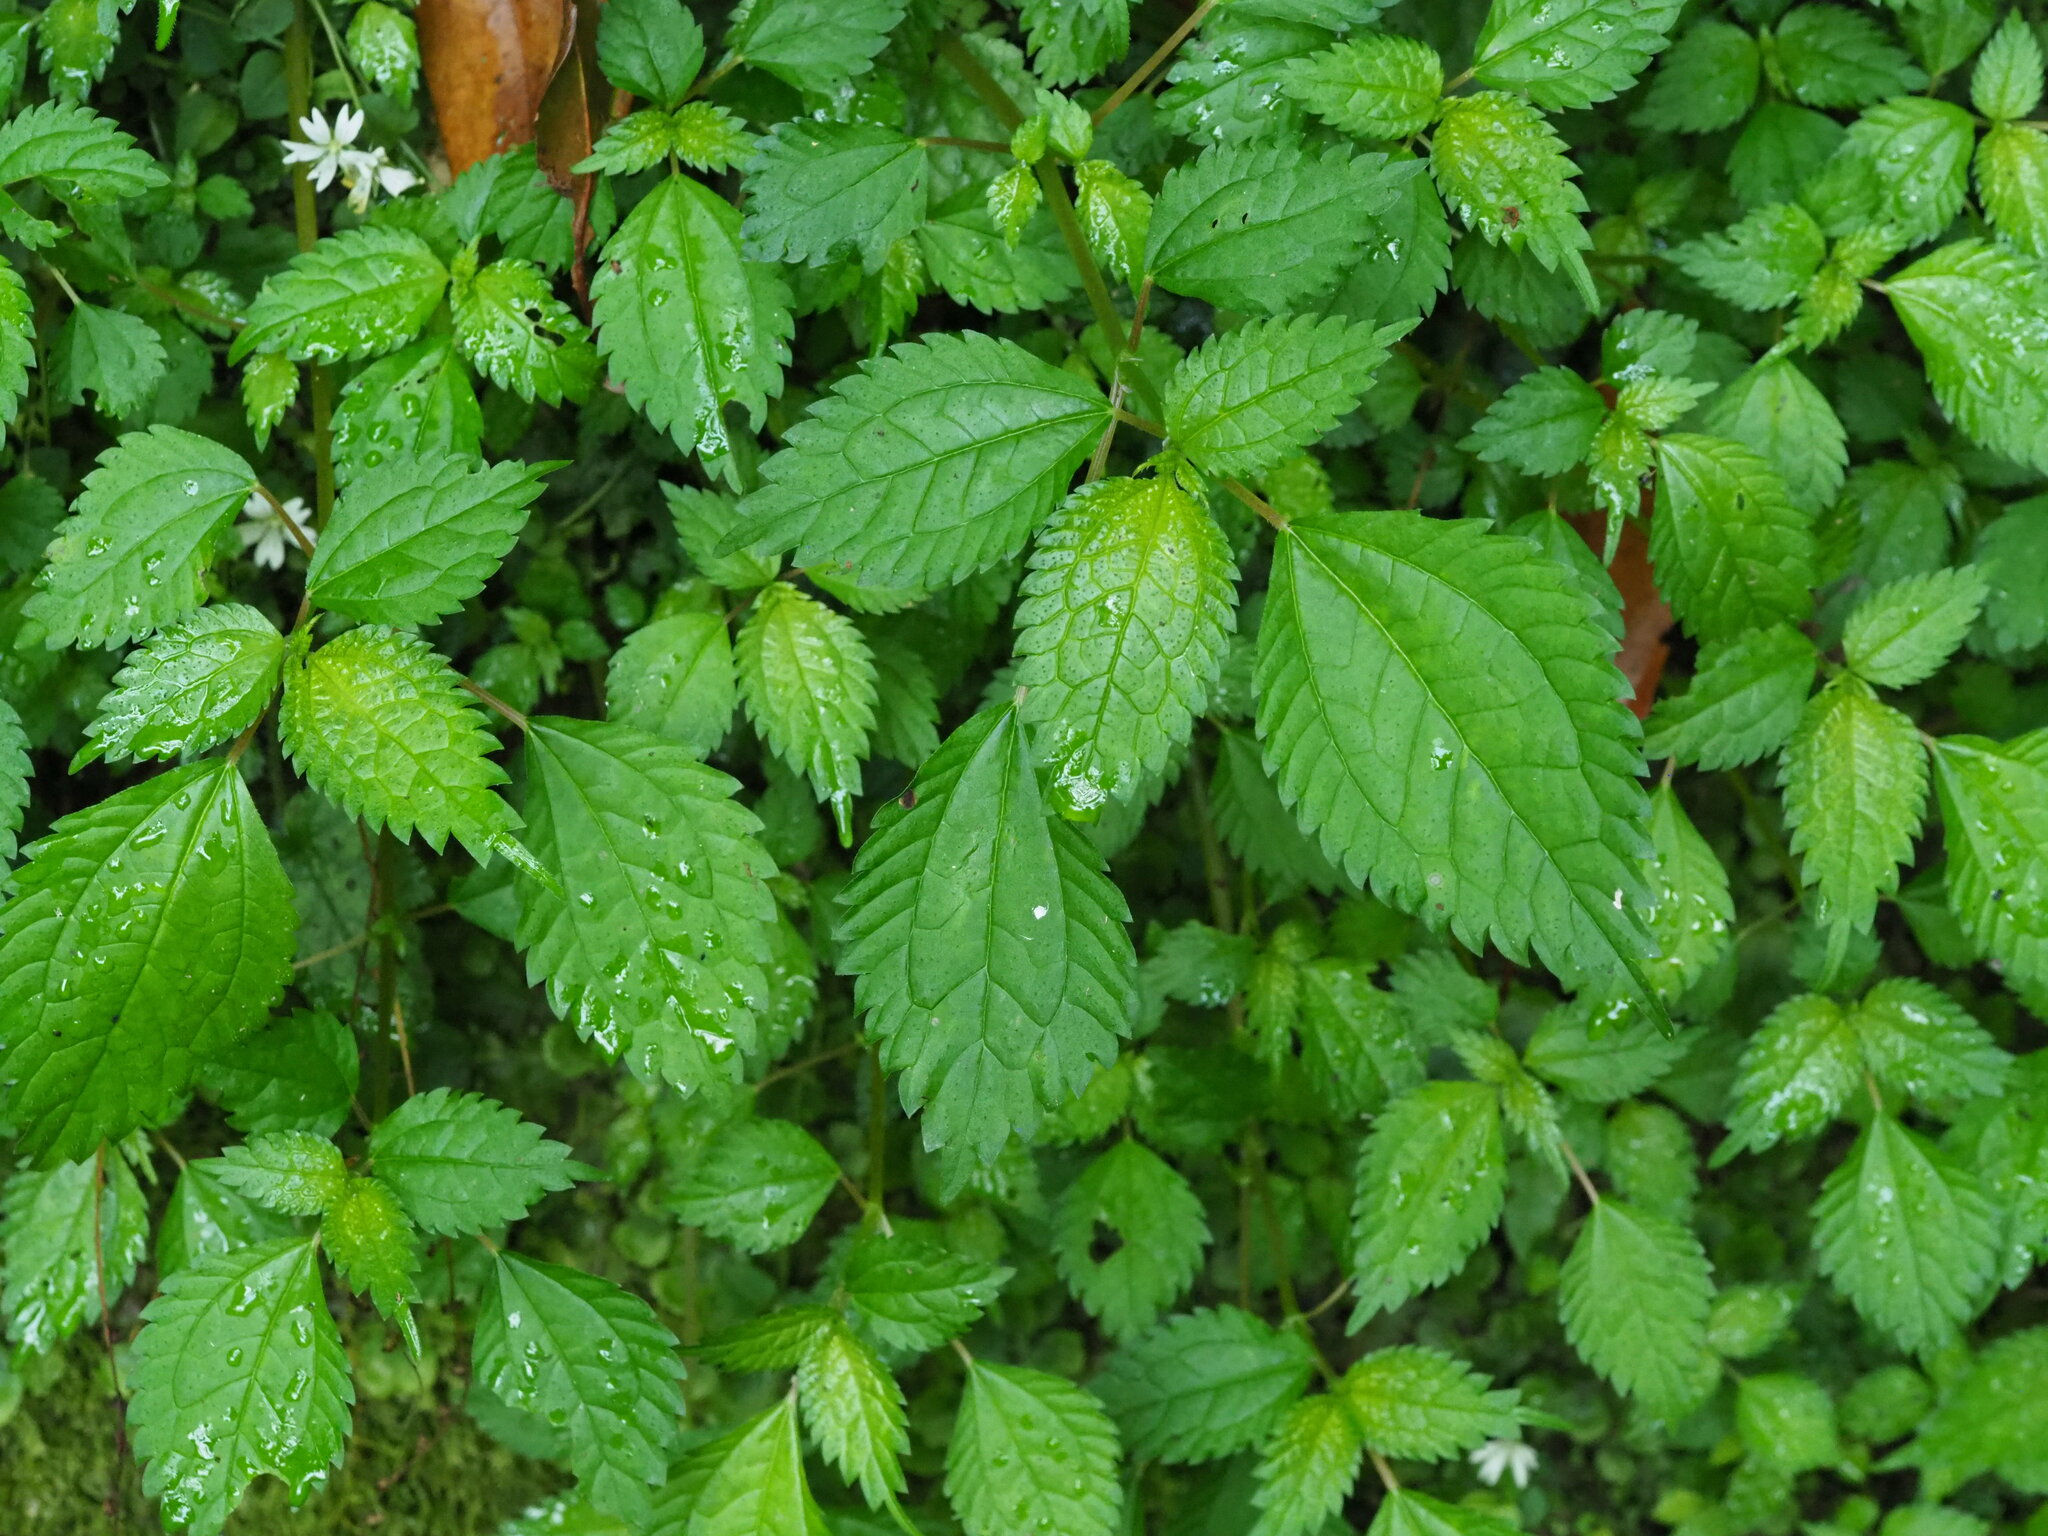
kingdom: Plantae
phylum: Tracheophyta
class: Magnoliopsida
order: Rosales
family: Urticaceae
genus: Lecanthus
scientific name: Lecanthus peduncularis
